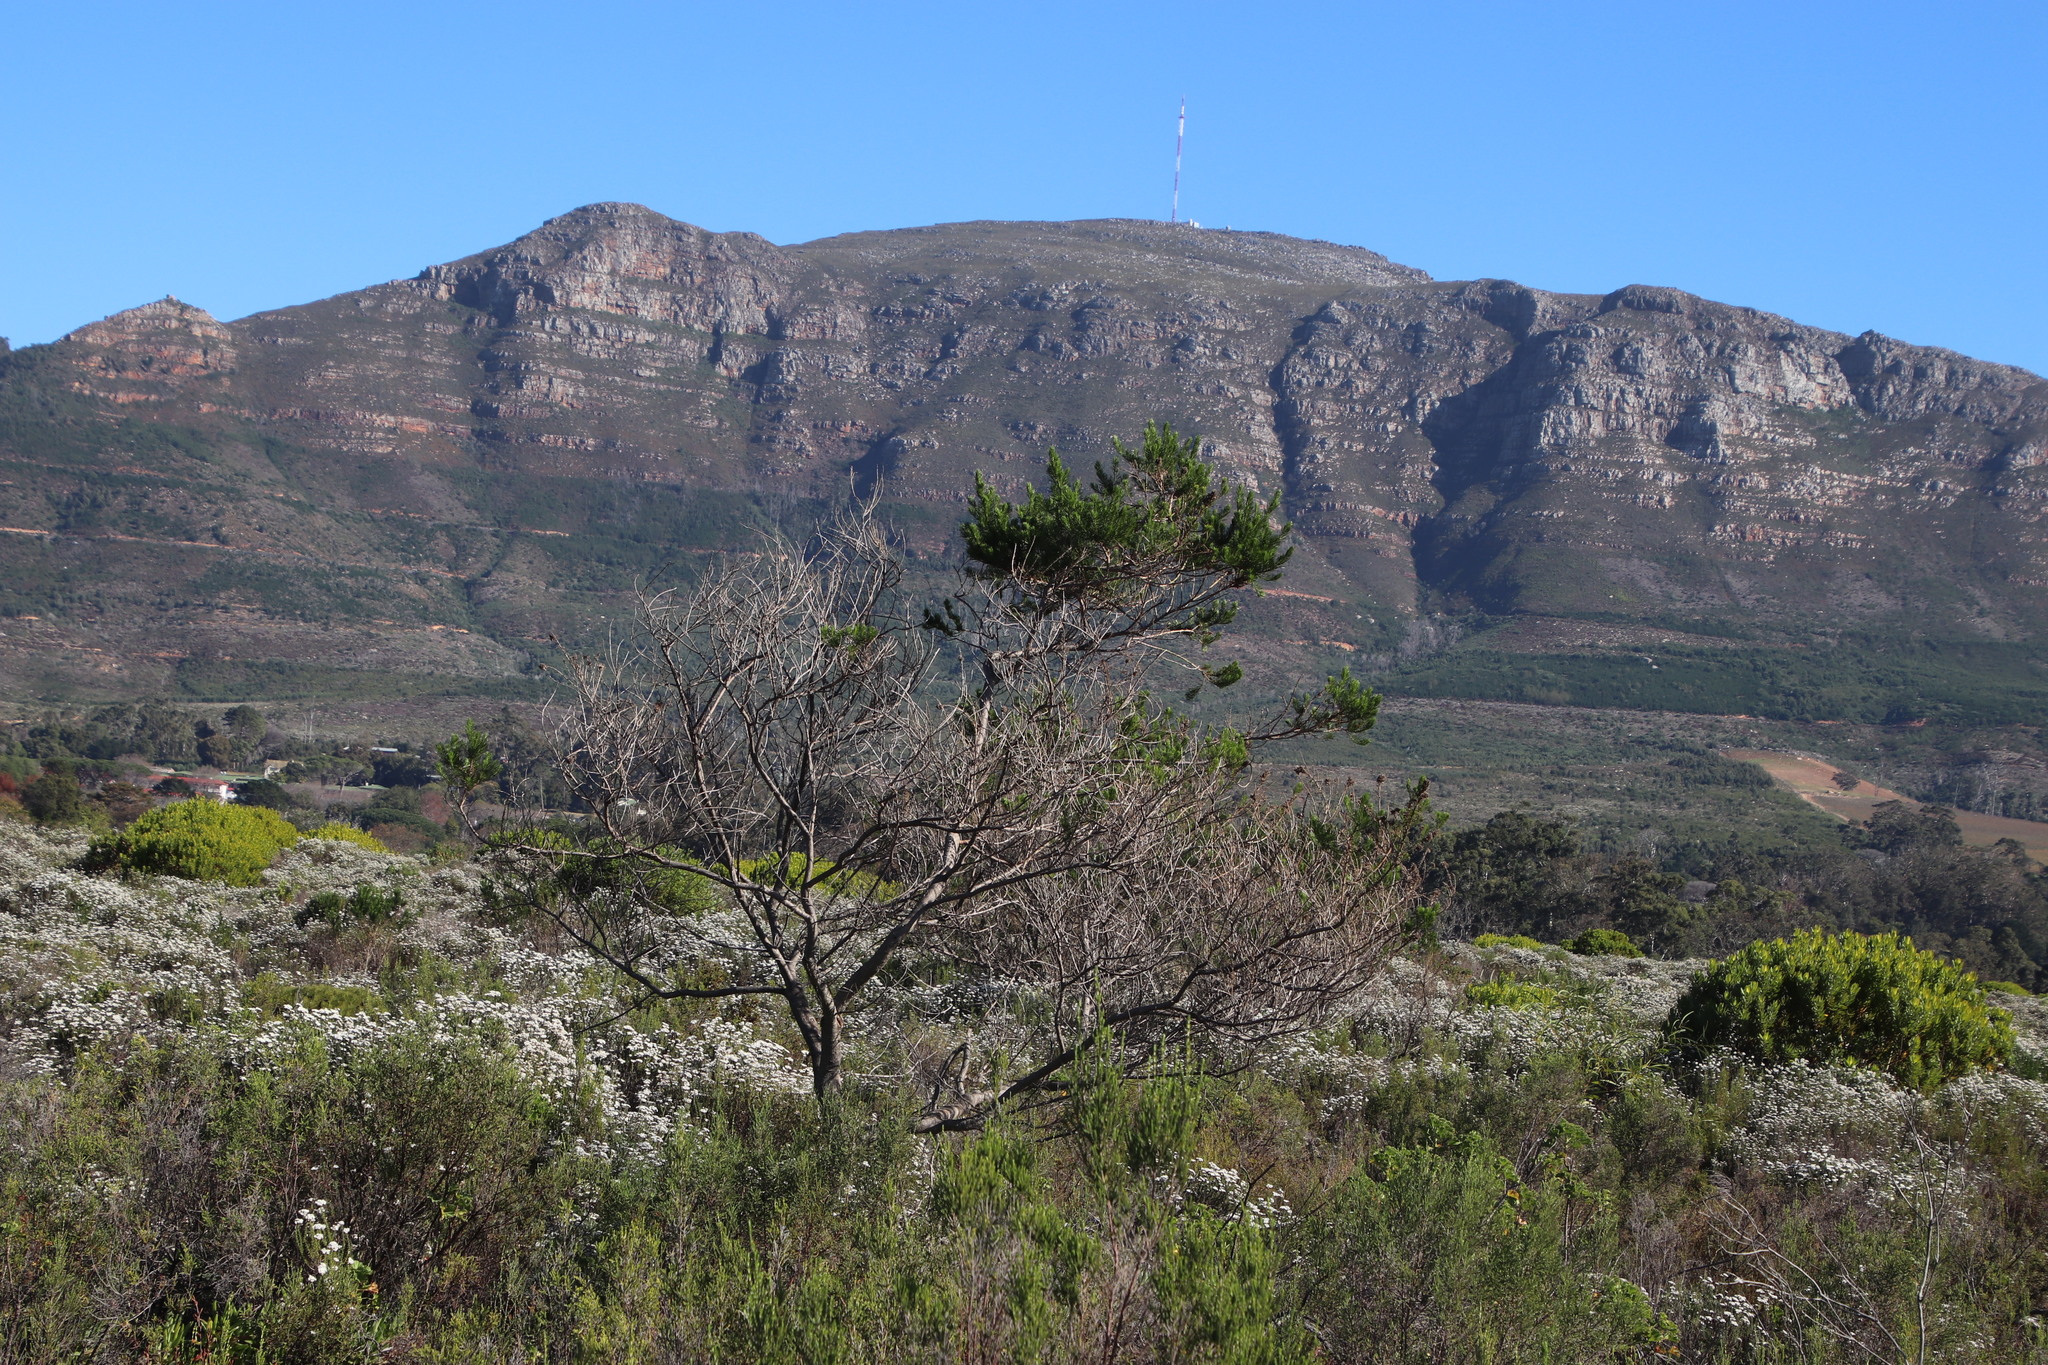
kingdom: Plantae
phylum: Tracheophyta
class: Magnoliopsida
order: Fabales
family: Fabaceae
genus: Psoralea
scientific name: Psoralea pinnata
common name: African scurfpea
